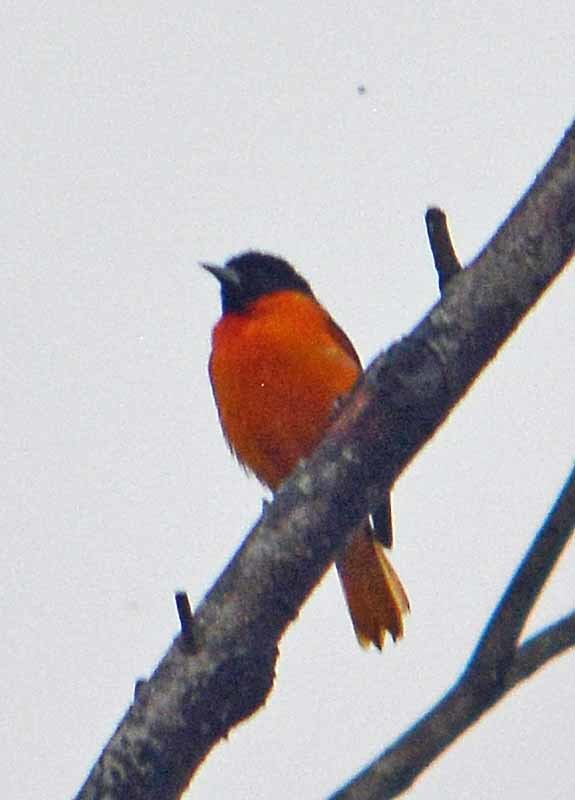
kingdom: Animalia
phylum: Chordata
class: Aves
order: Passeriformes
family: Icteridae
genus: Icterus
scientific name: Icterus galbula
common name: Baltimore oriole
